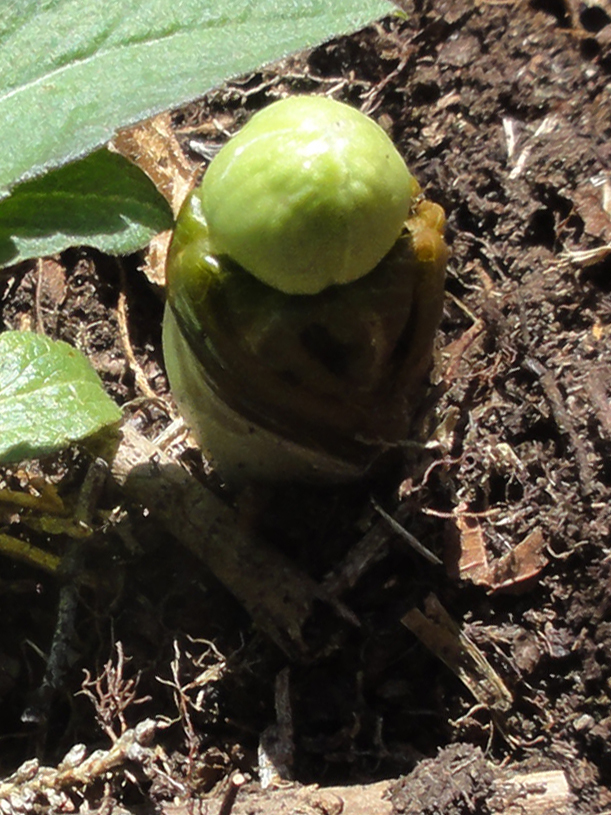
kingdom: Plantae
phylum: Tracheophyta
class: Magnoliopsida
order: Ranunculales
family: Berberidaceae
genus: Podophyllum
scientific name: Podophyllum peltatum
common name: Wild mandrake
